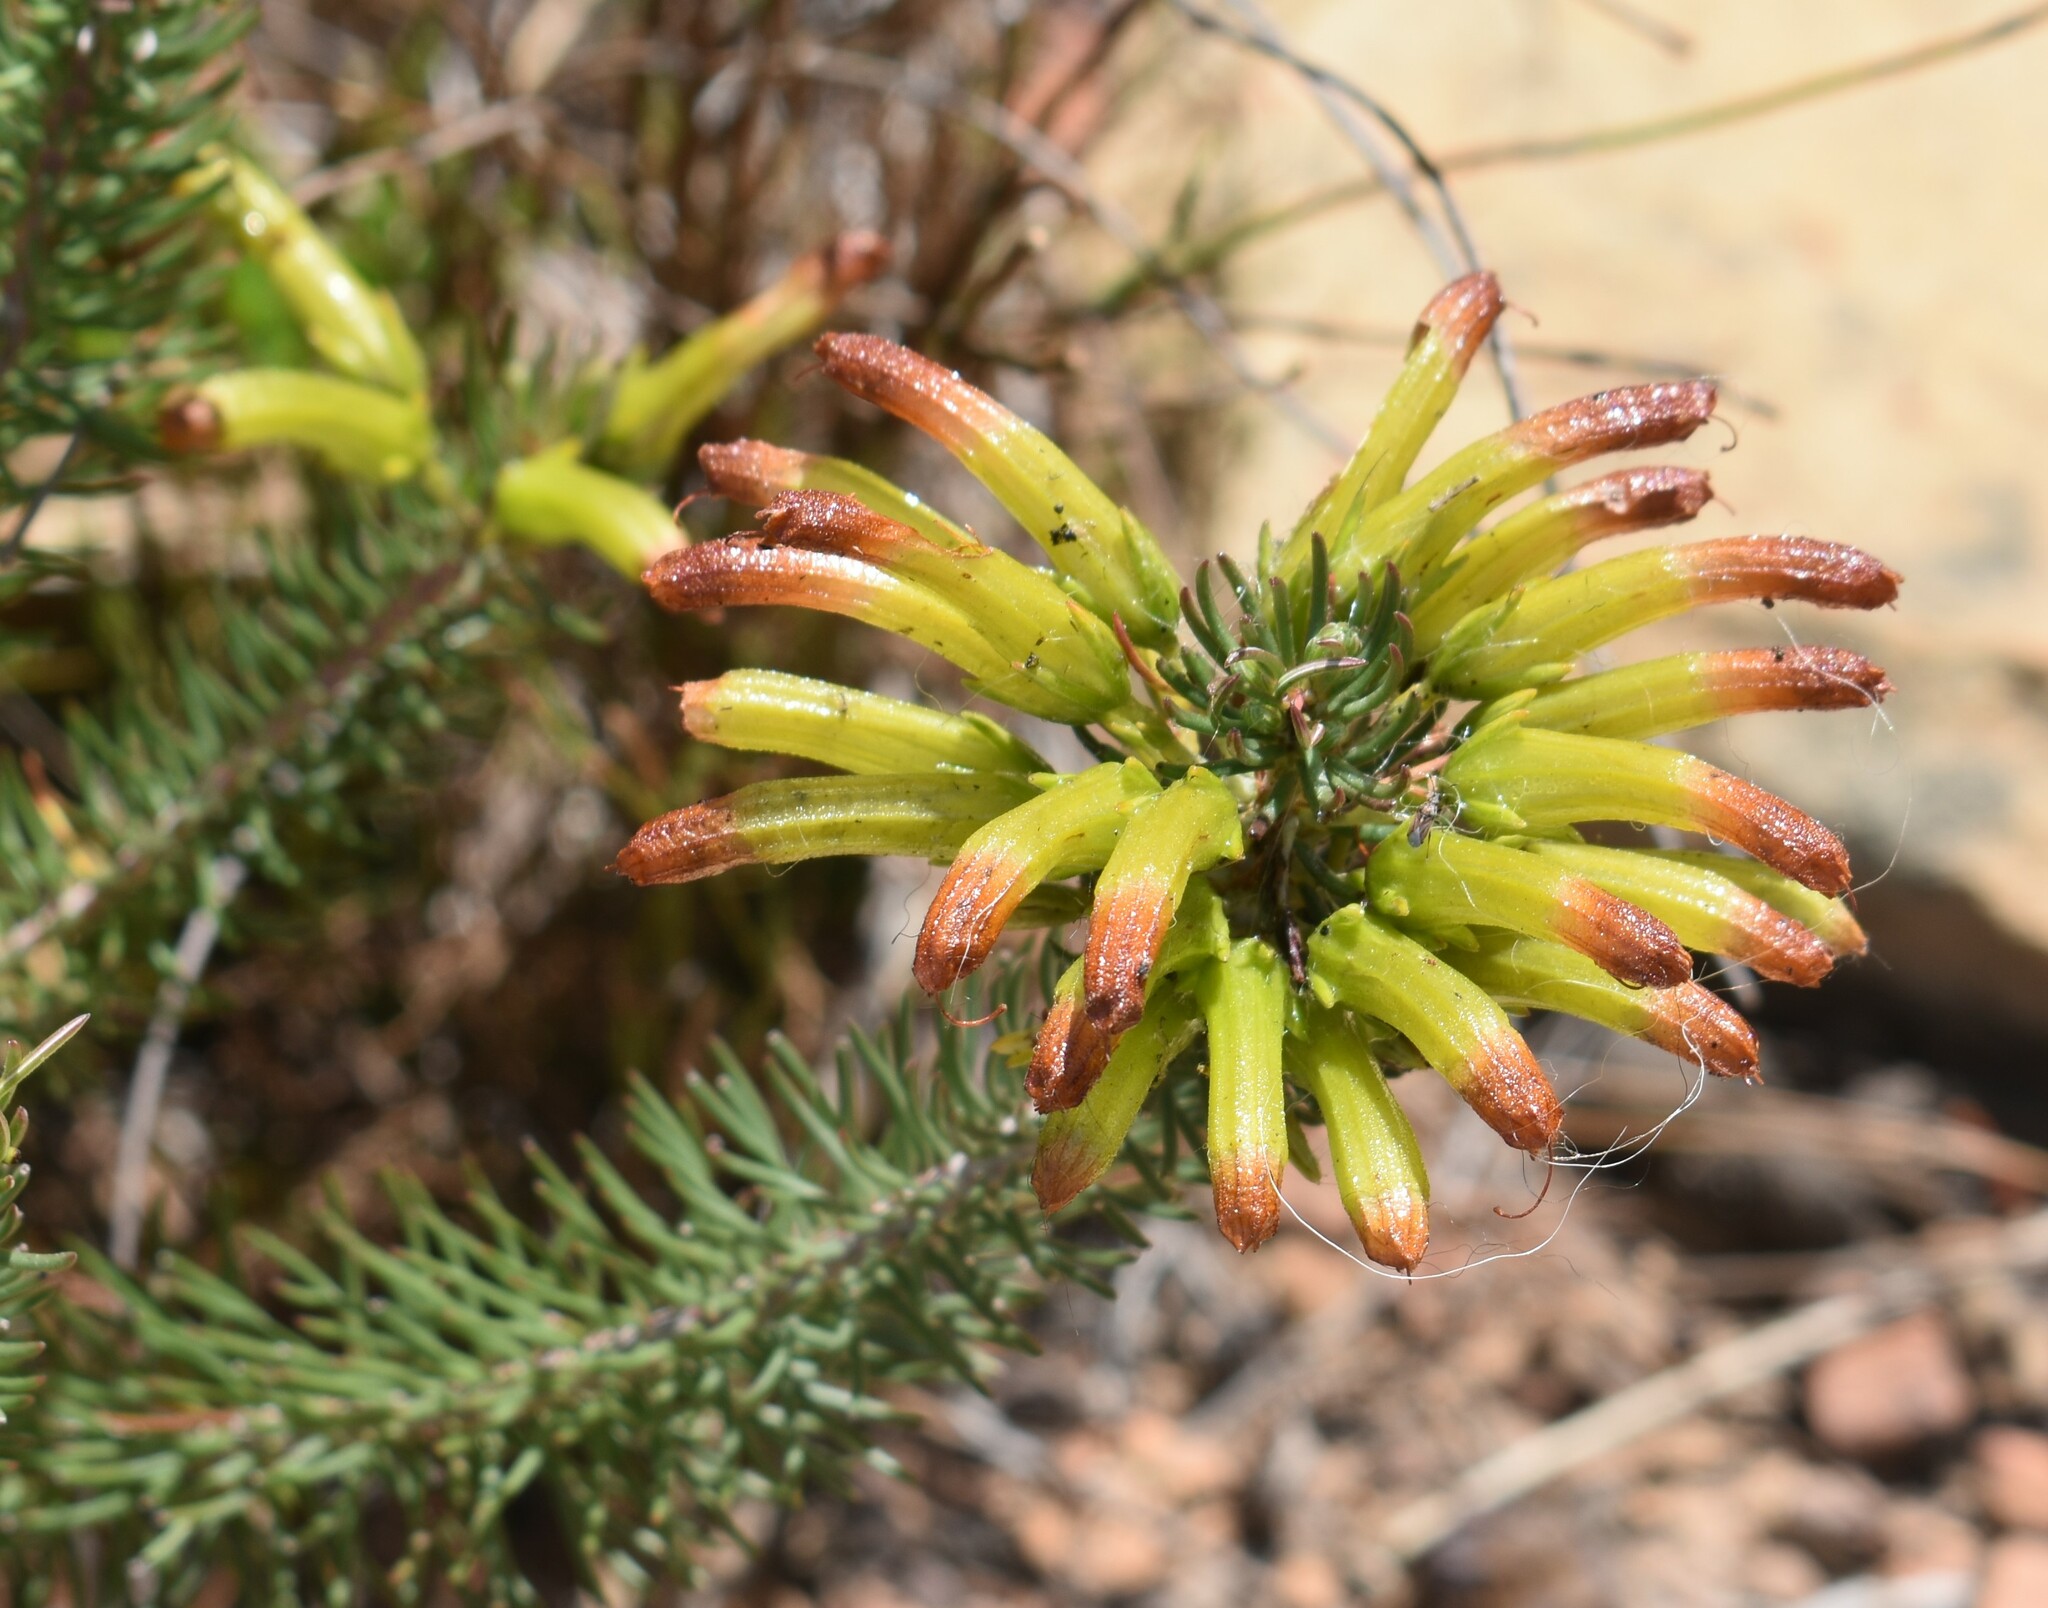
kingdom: Plantae
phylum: Tracheophyta
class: Magnoliopsida
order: Ericales
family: Ericaceae
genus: Erica
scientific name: Erica thomae
